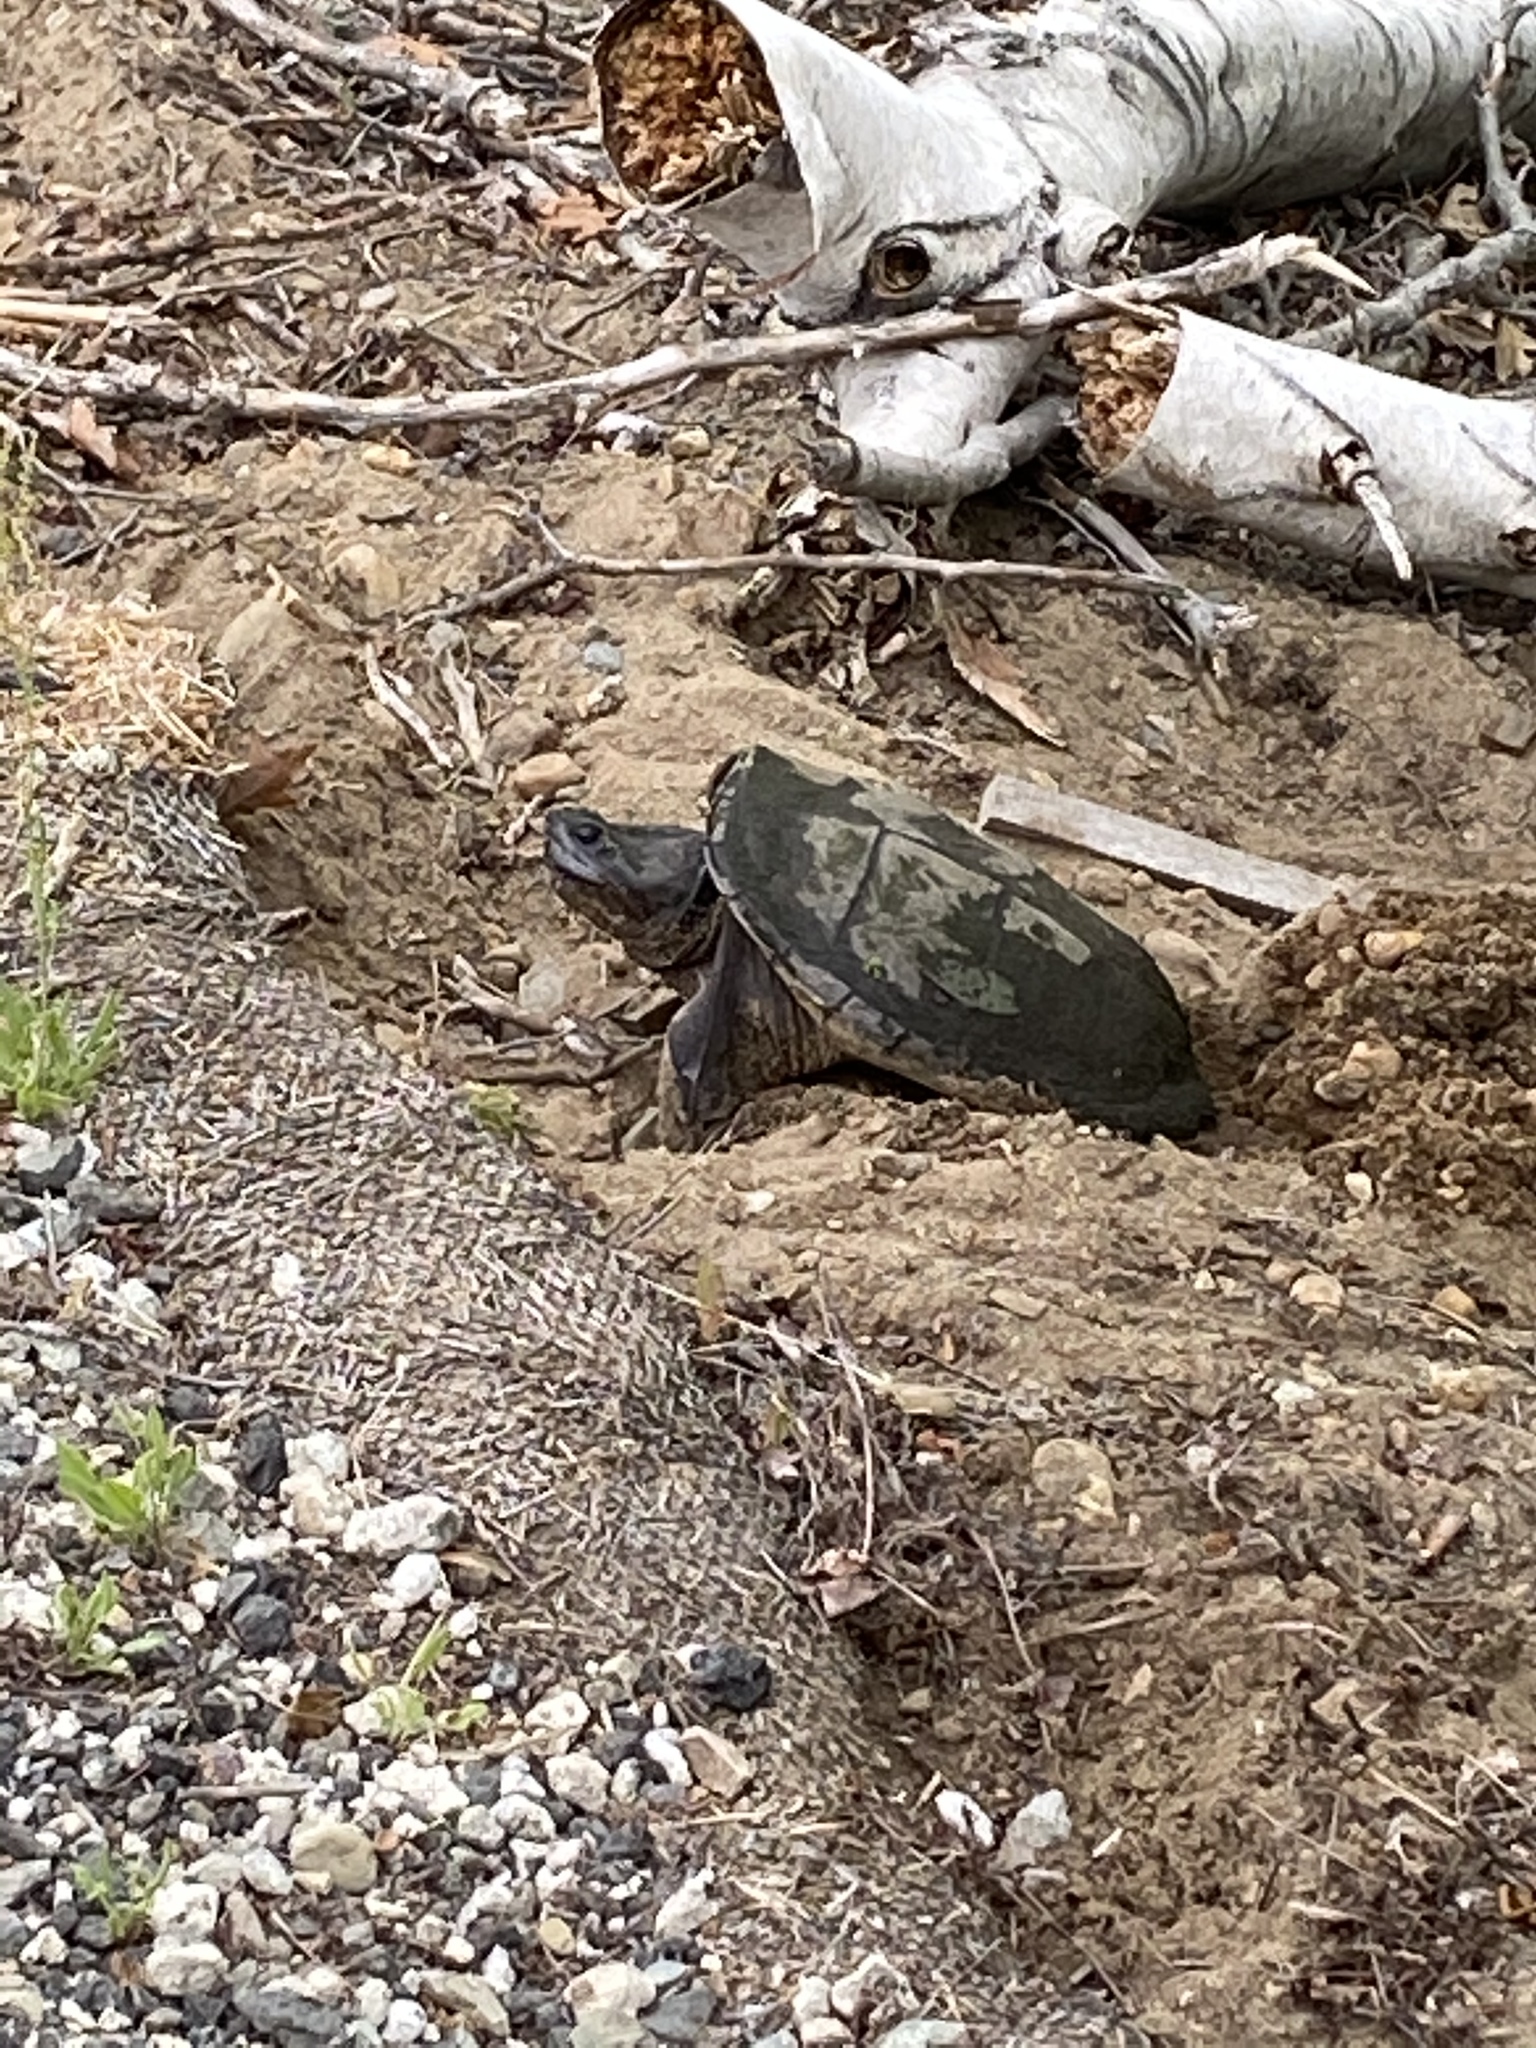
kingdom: Animalia
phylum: Chordata
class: Testudines
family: Chelydridae
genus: Chelydra
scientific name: Chelydra serpentina
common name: Common snapping turtle
